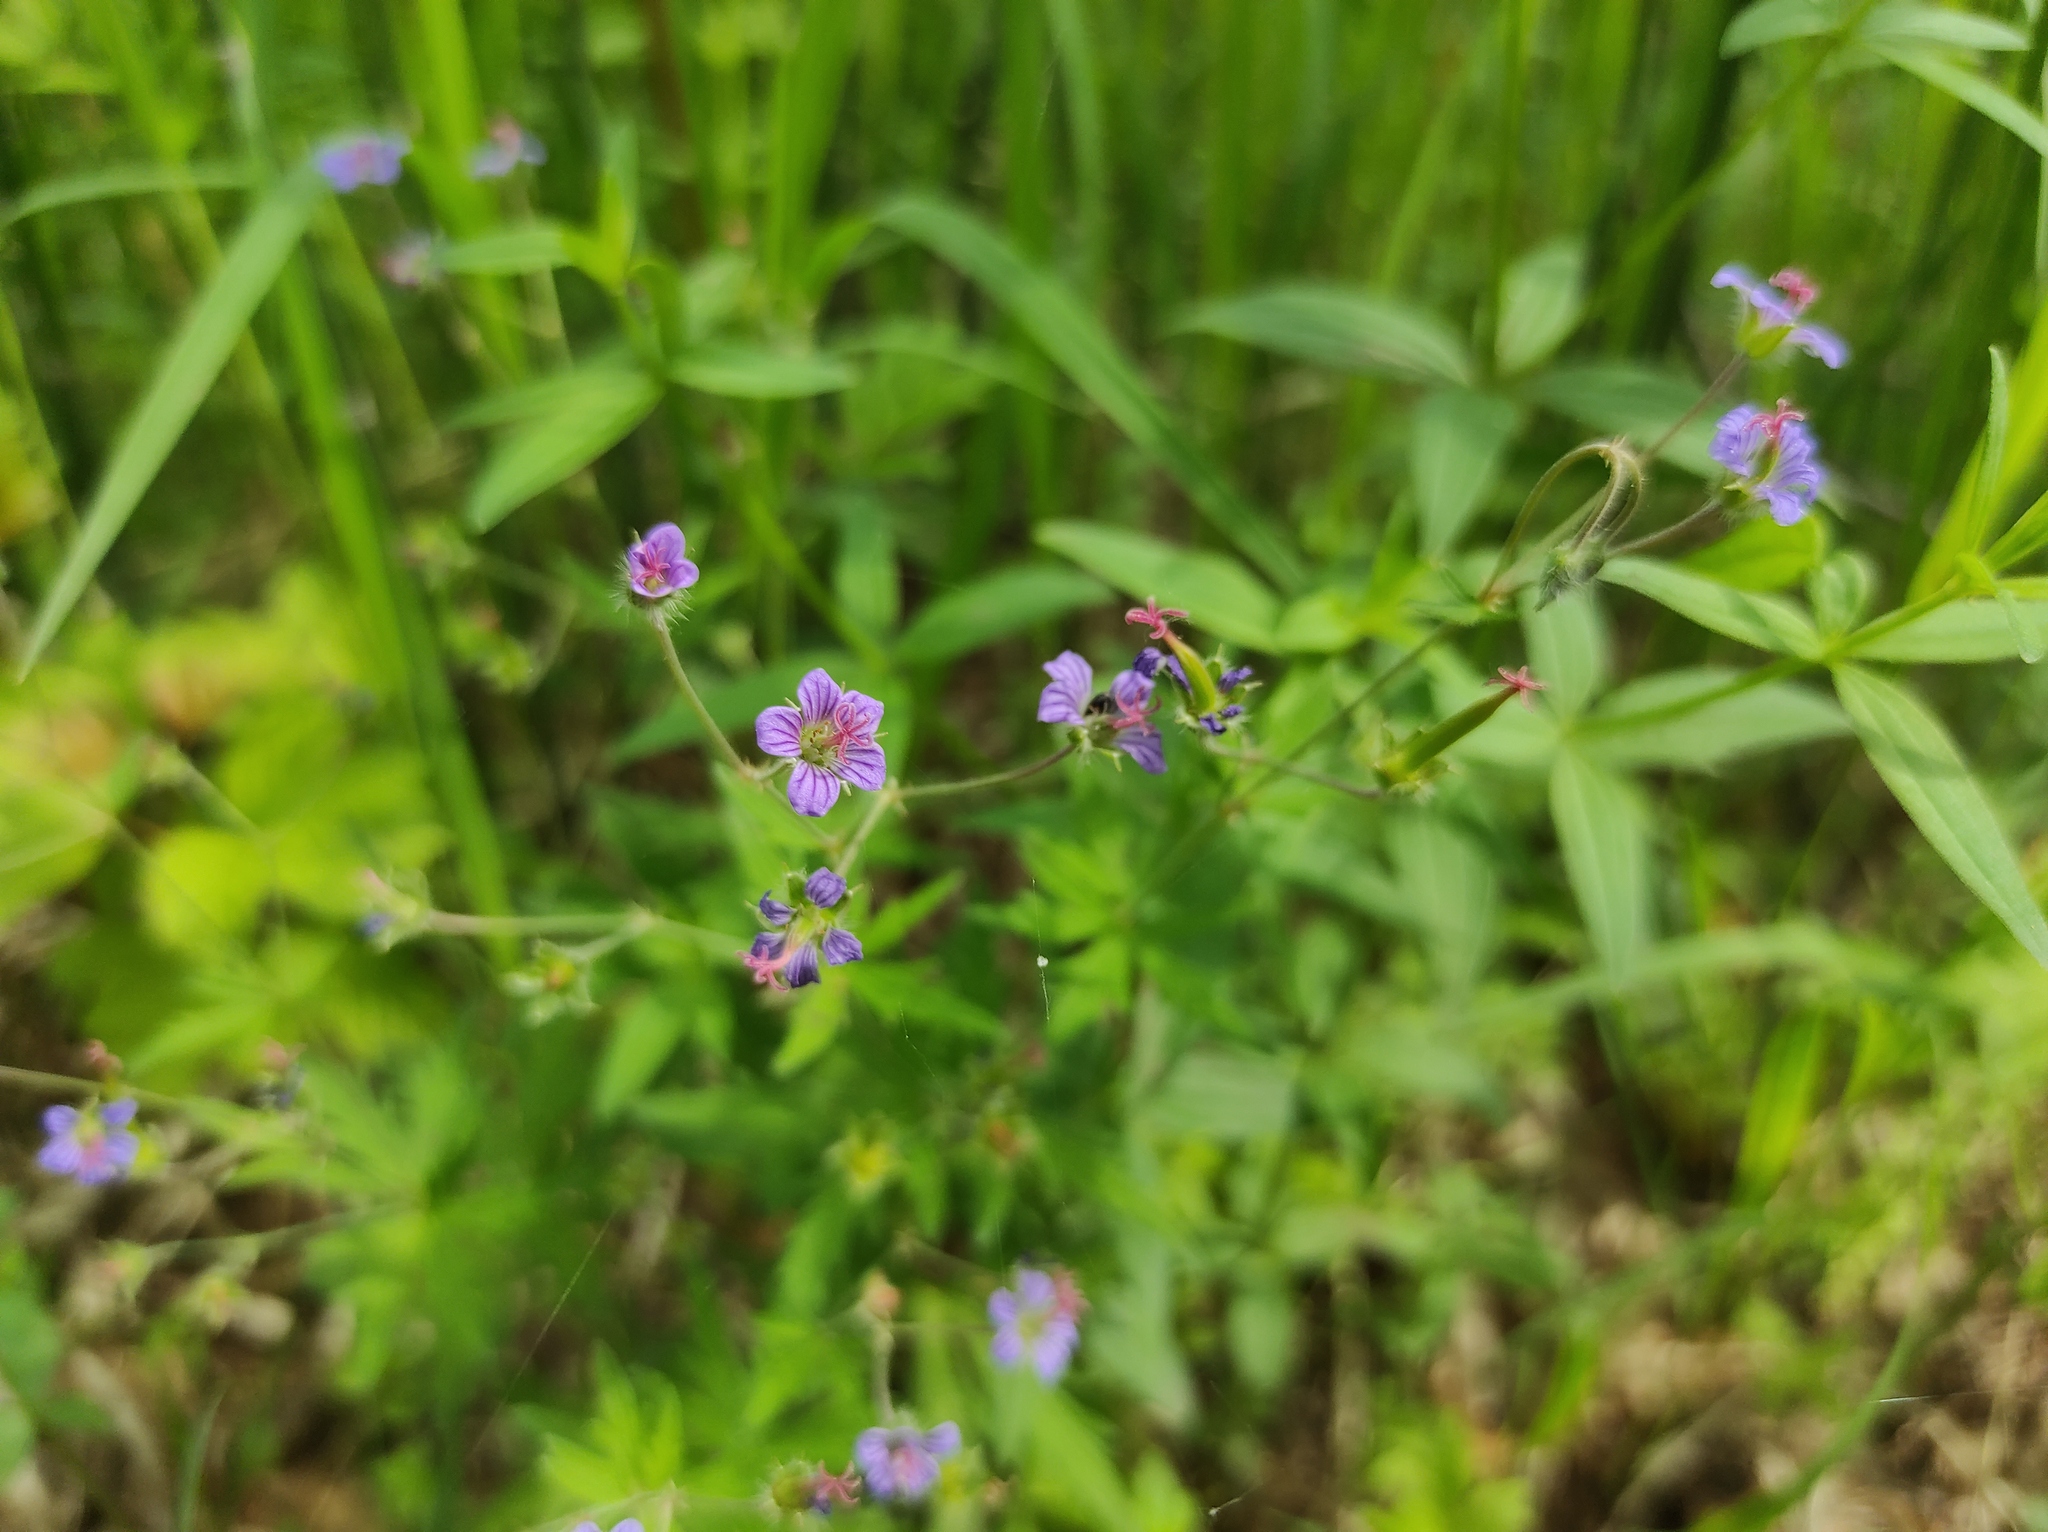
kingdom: Plantae
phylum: Tracheophyta
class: Magnoliopsida
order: Geraniales
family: Geraniaceae
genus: Geranium
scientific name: Geranium pseudosibiricum
